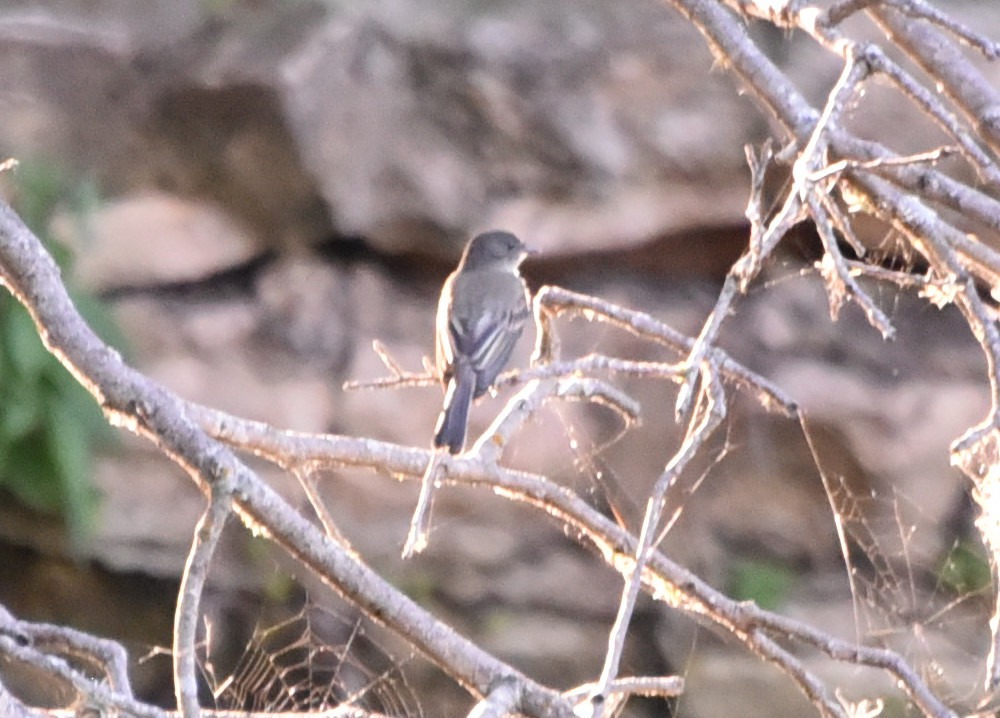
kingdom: Animalia
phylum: Chordata
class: Aves
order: Passeriformes
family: Tyrannidae
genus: Sayornis
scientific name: Sayornis phoebe
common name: Eastern phoebe
